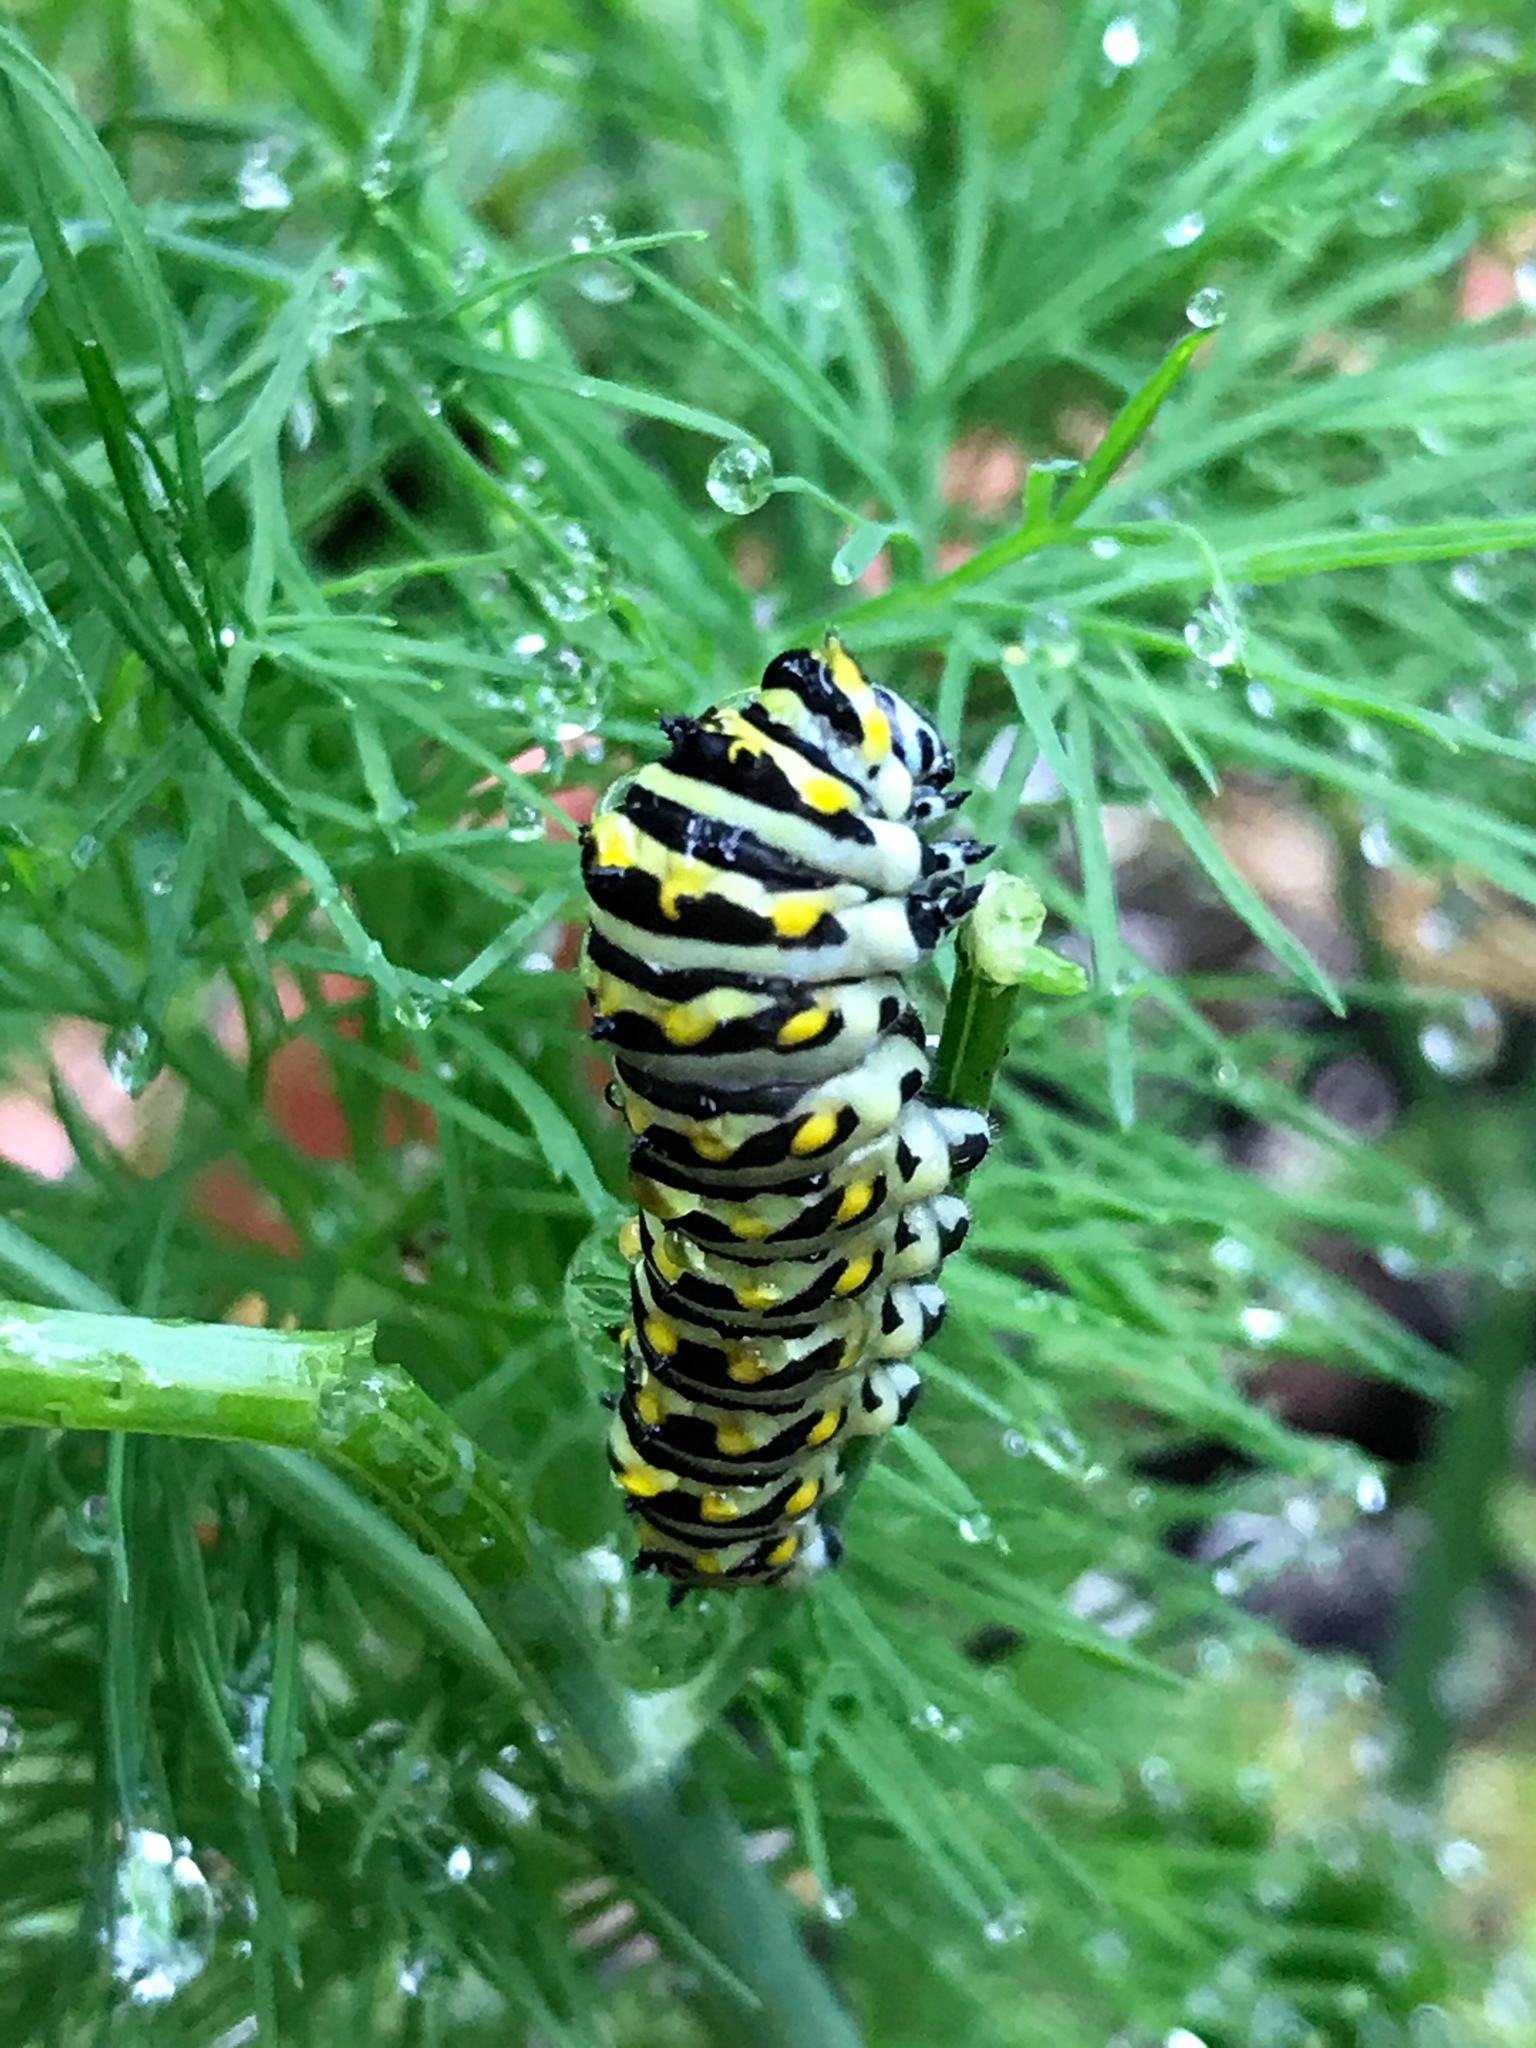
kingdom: Animalia
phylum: Arthropoda
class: Insecta
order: Lepidoptera
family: Papilionidae
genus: Papilio
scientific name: Papilio polyxenes
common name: Black swallowtail
